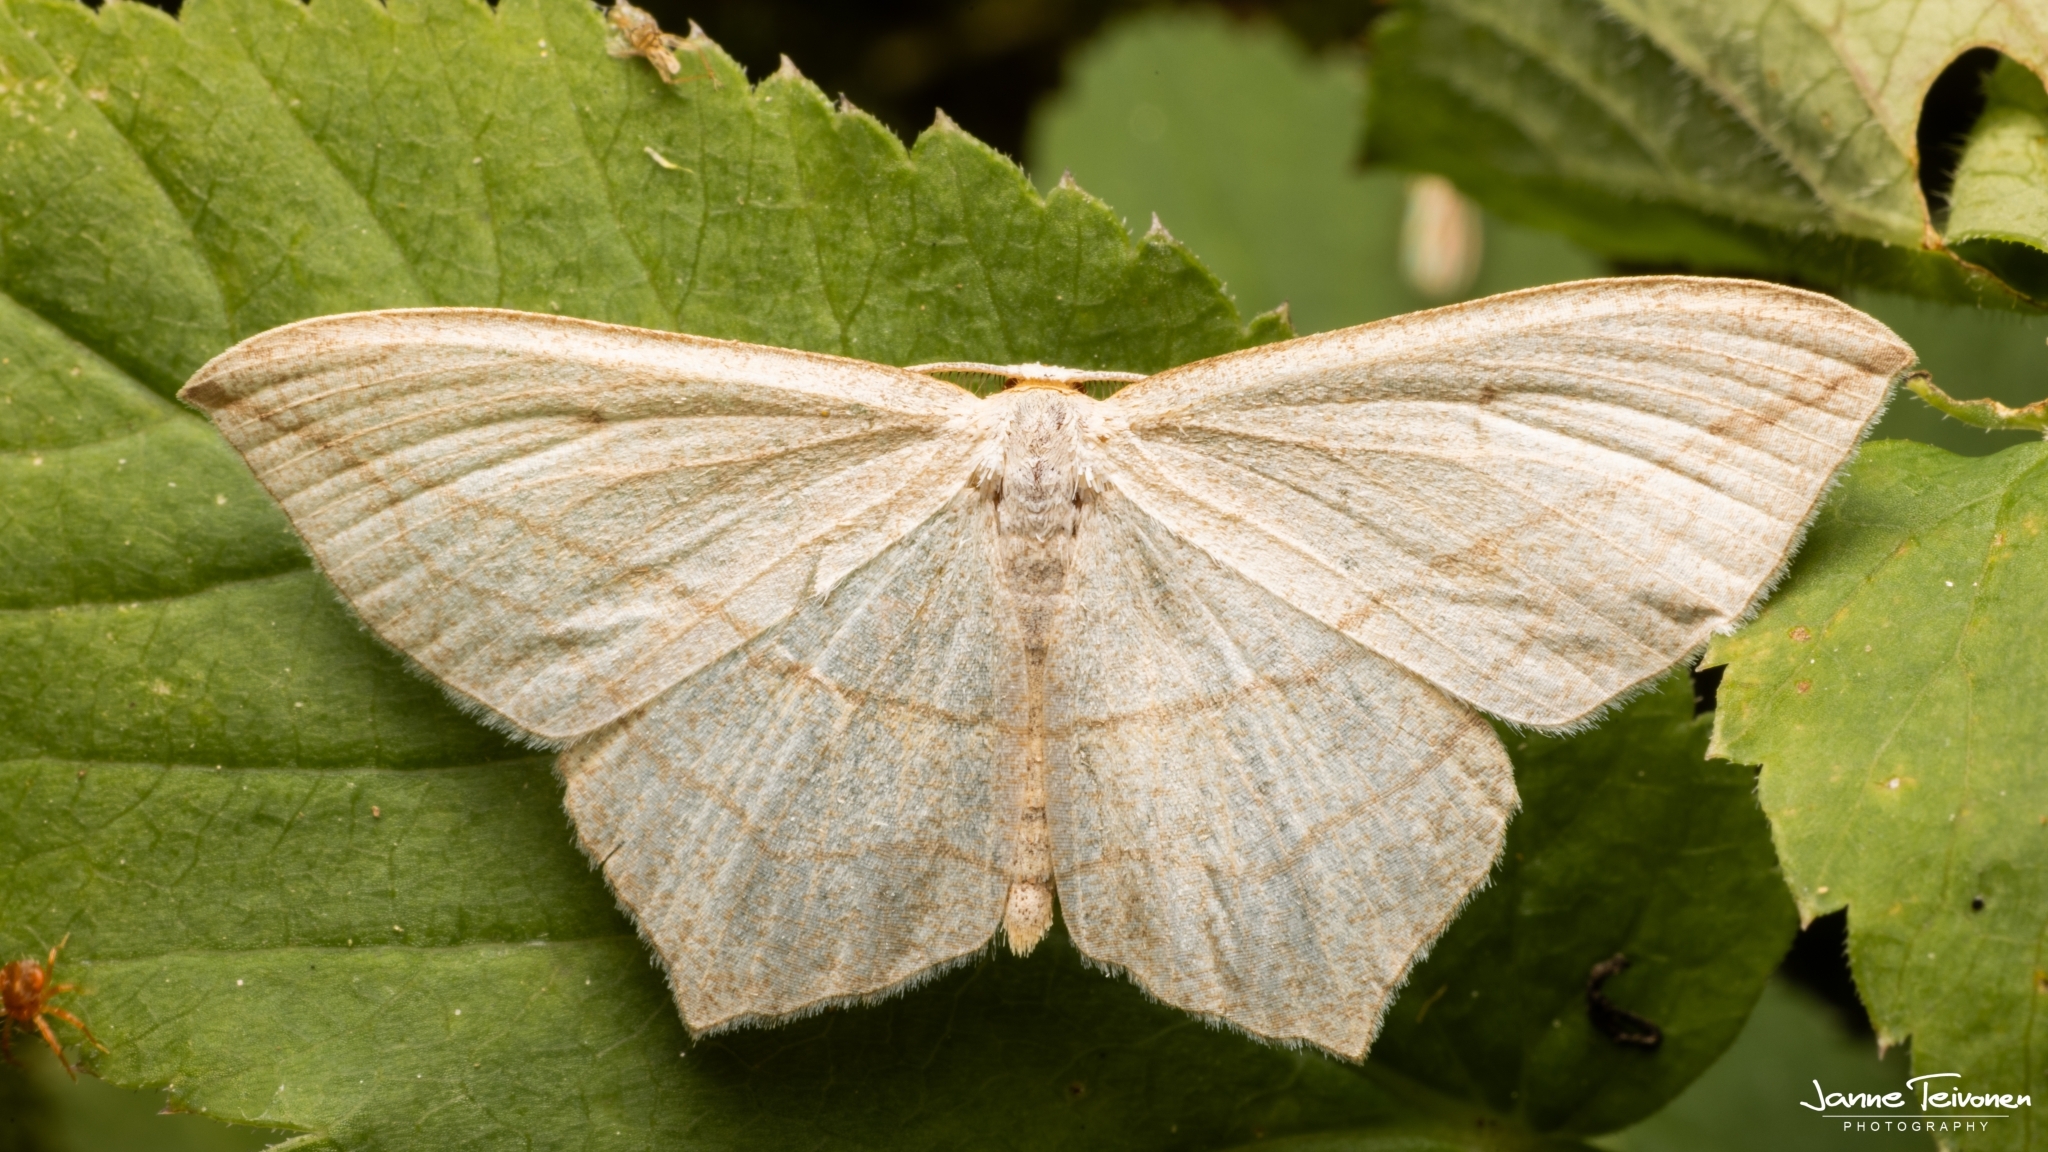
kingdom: Animalia
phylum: Arthropoda
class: Insecta
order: Lepidoptera
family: Geometridae
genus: Timandra
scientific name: Timandra comae
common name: Blood-vein
